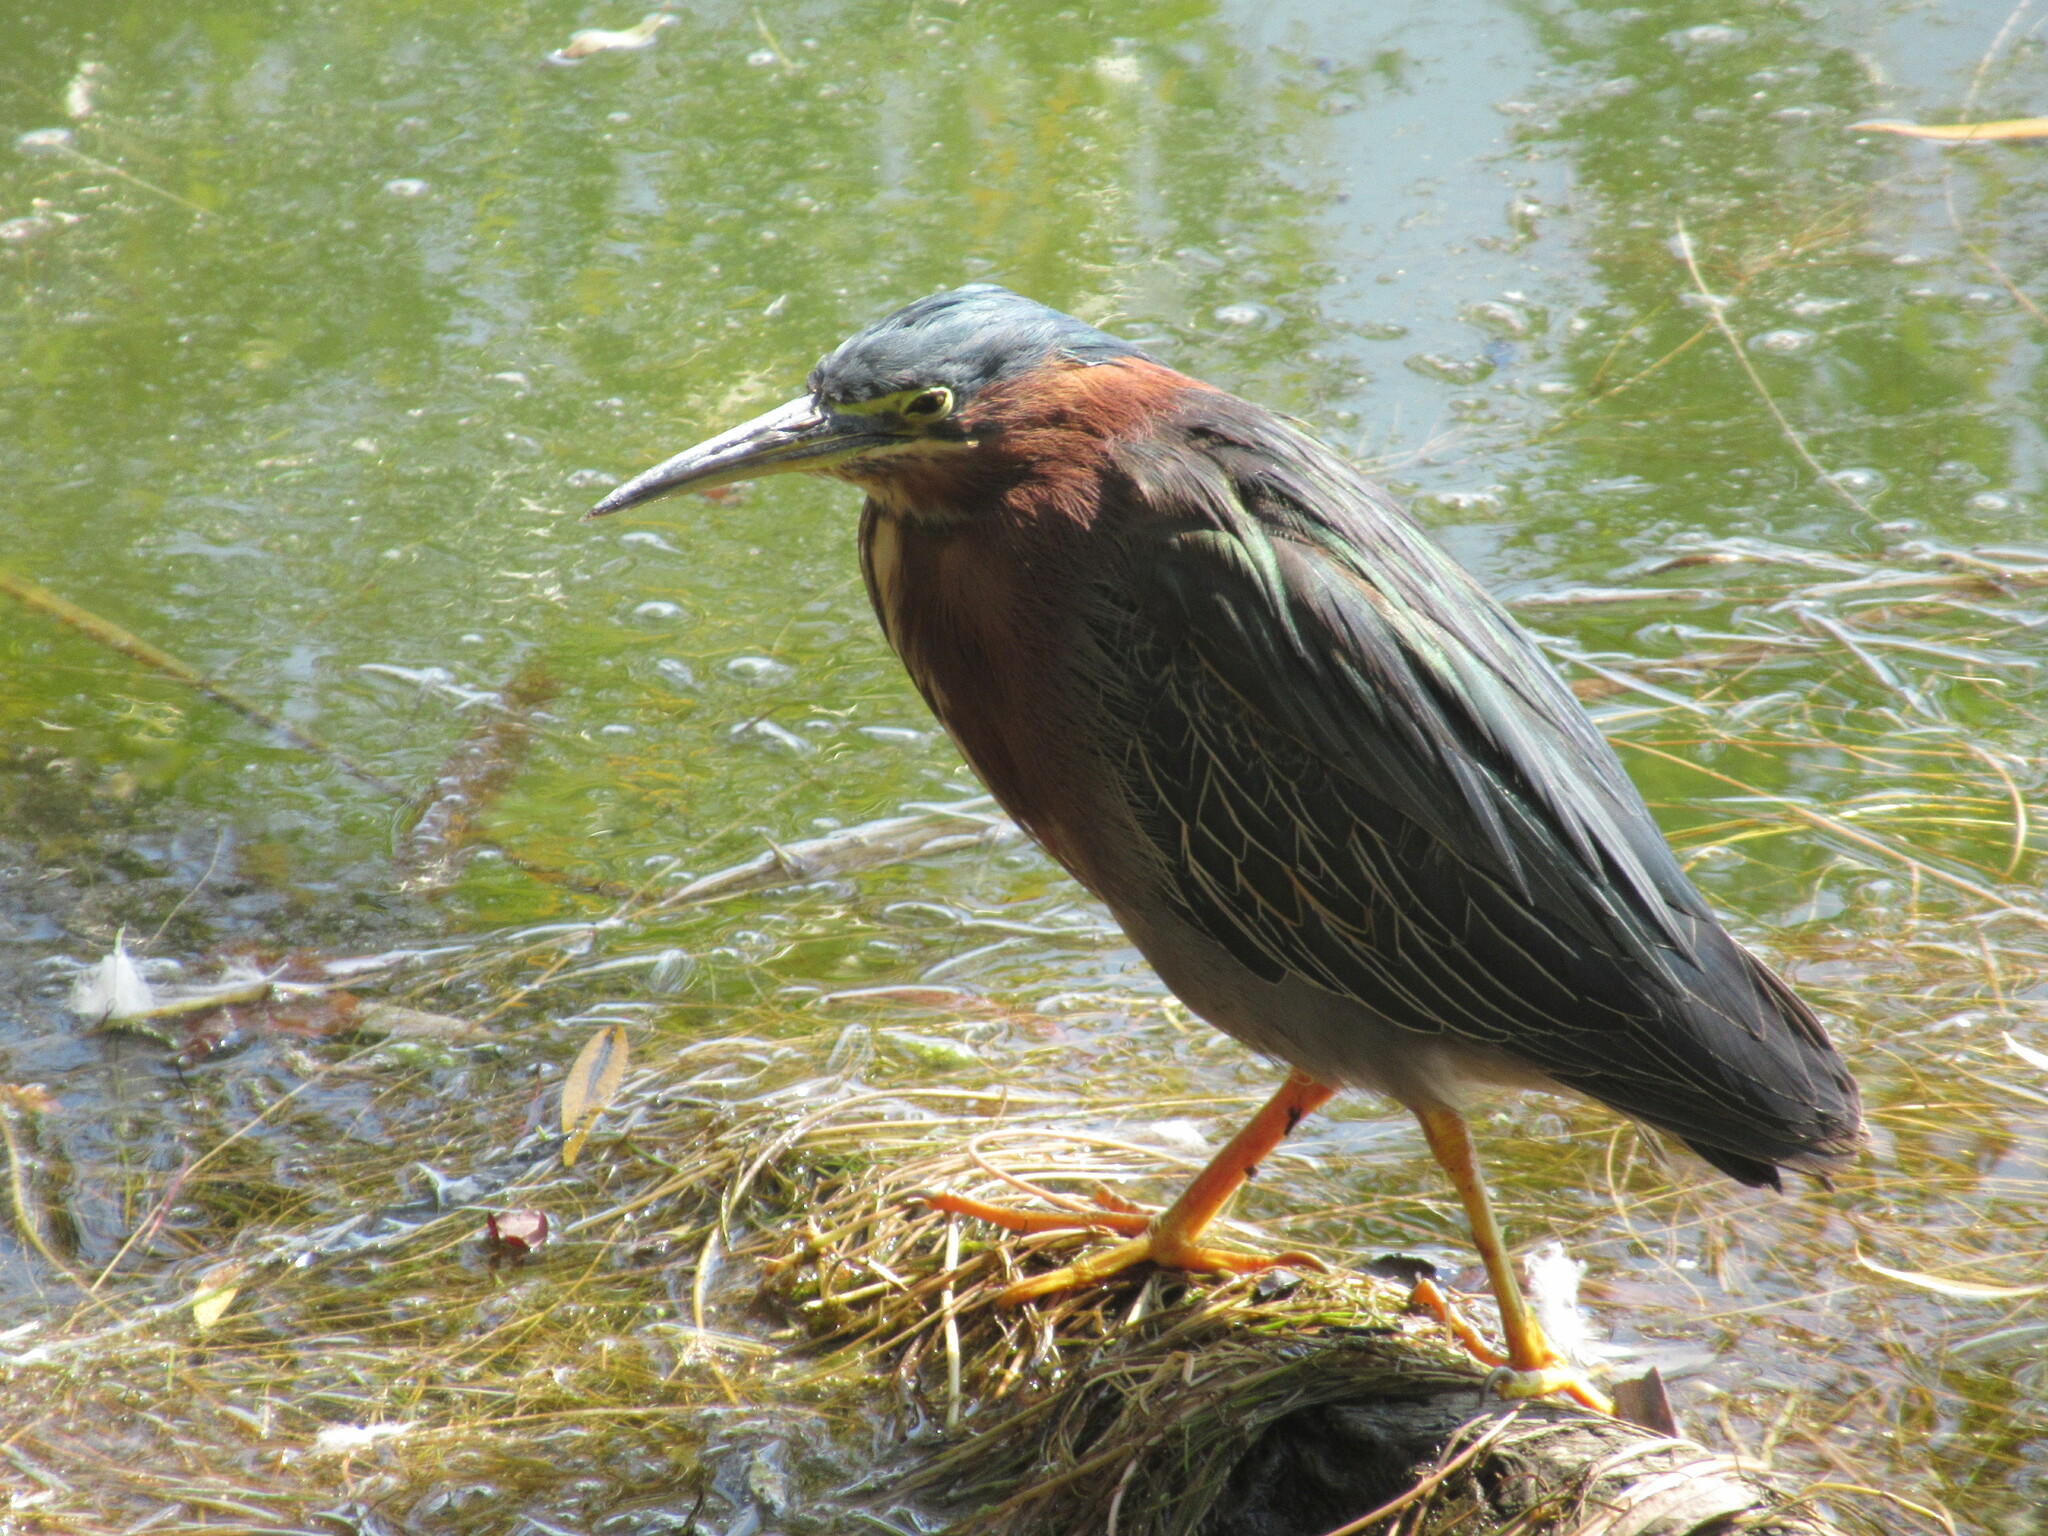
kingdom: Animalia
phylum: Chordata
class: Aves
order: Pelecaniformes
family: Ardeidae
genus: Butorides
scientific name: Butorides virescens
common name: Green heron
